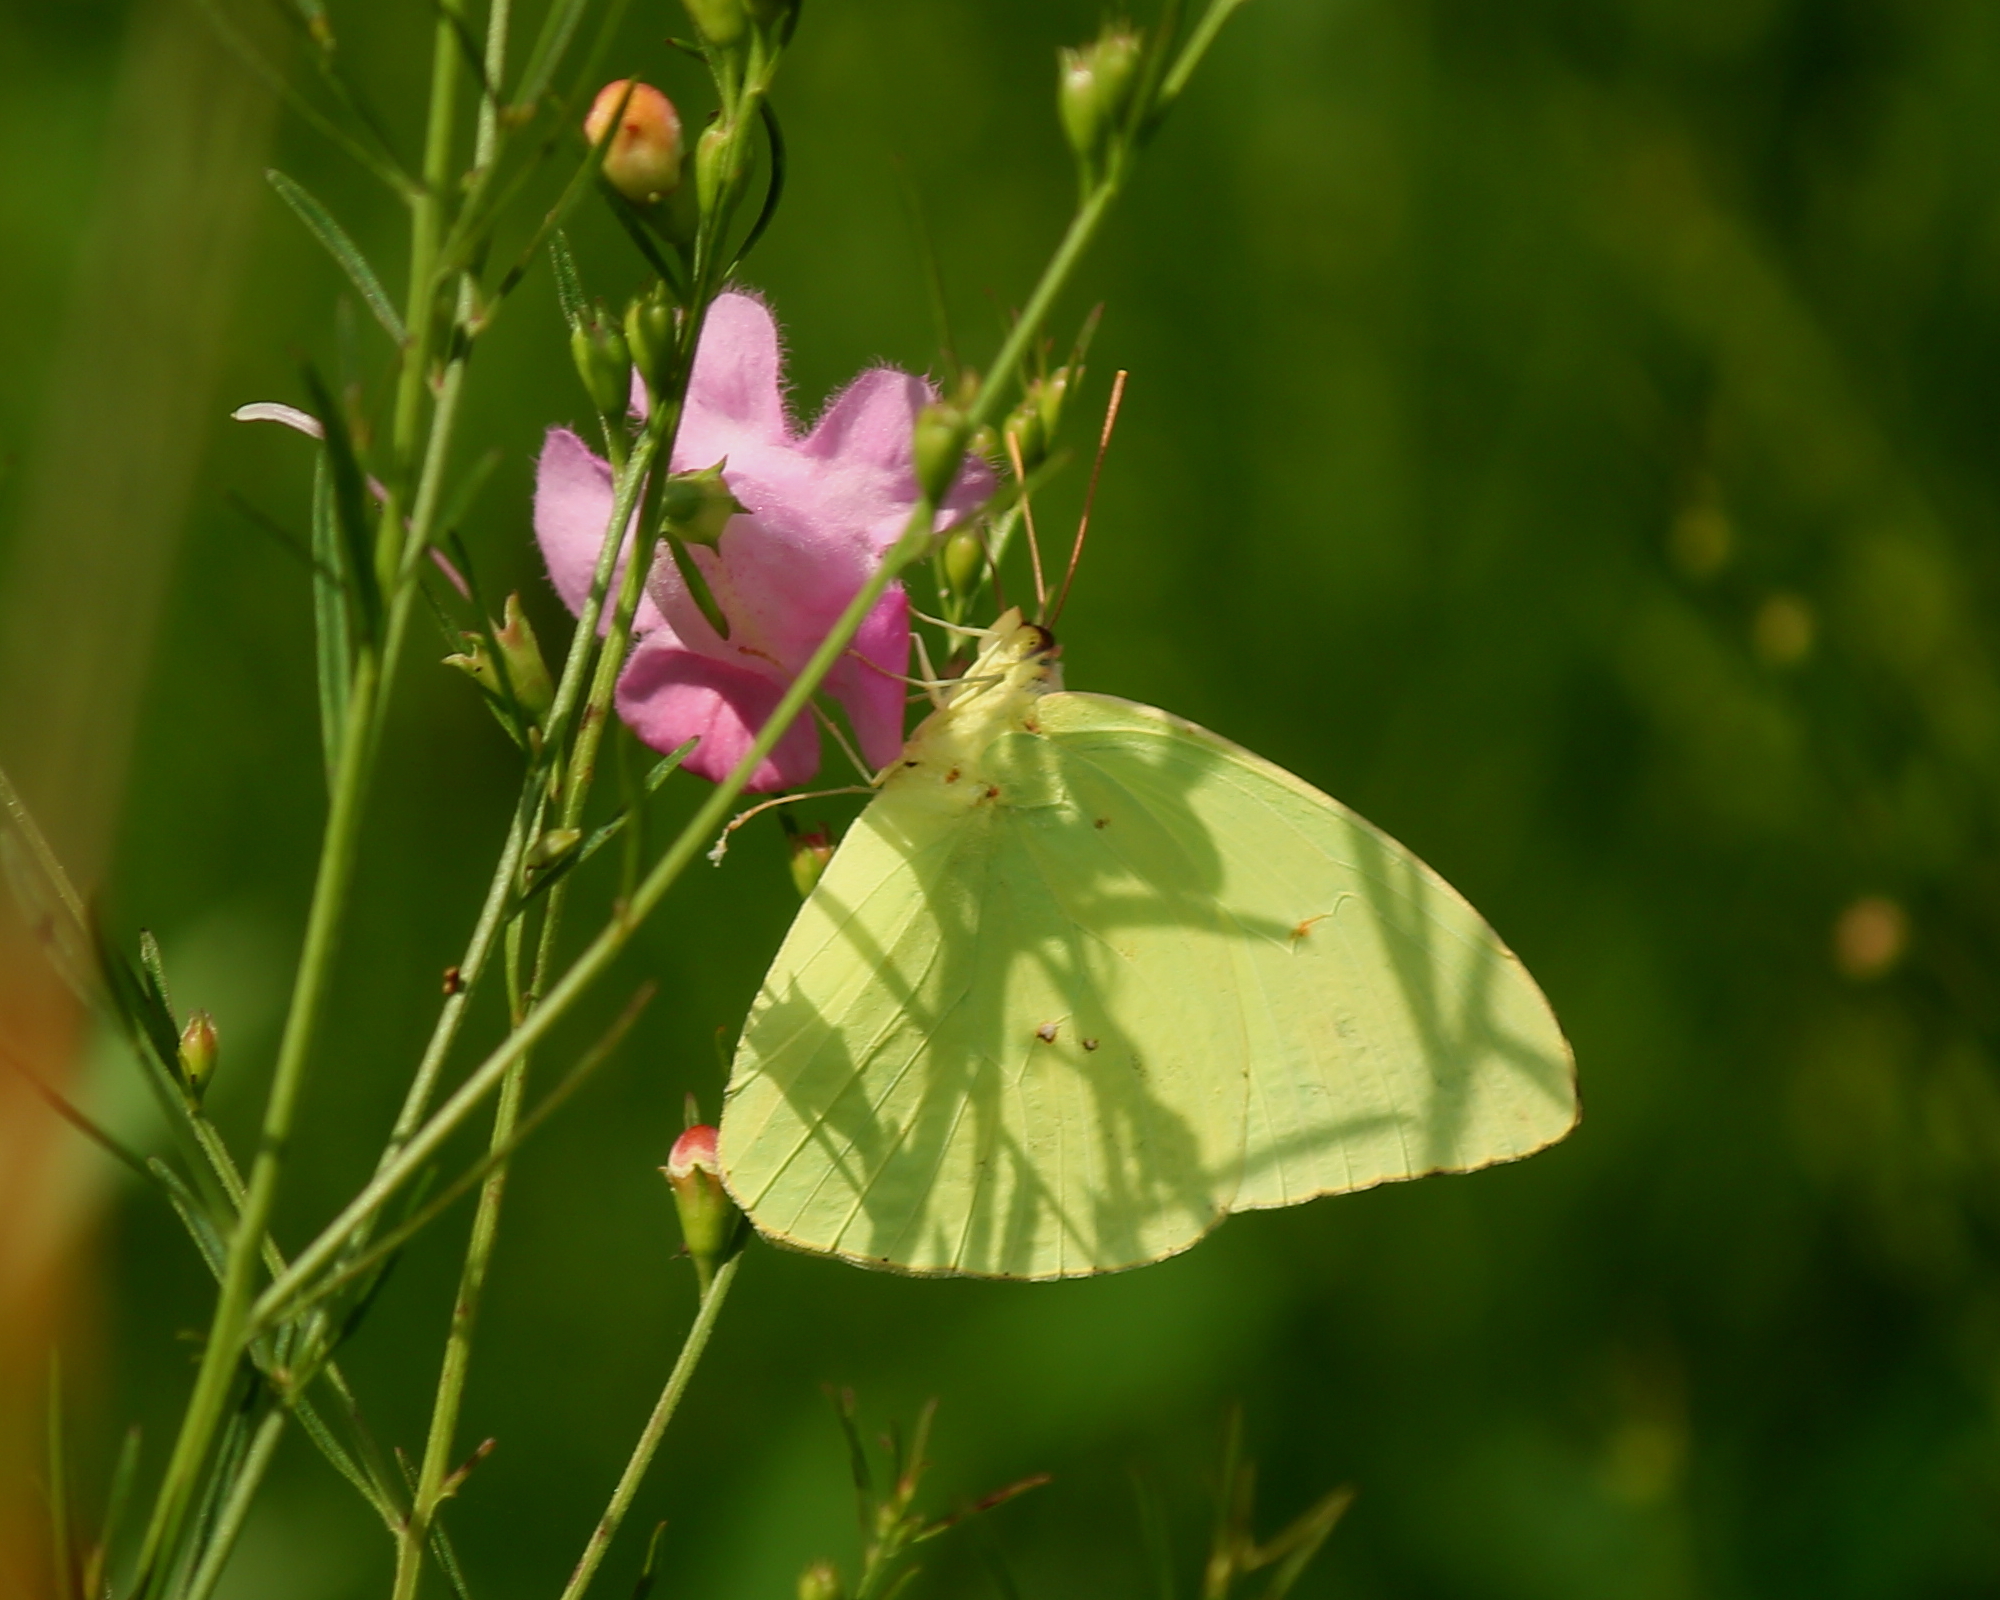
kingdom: Animalia
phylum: Arthropoda
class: Insecta
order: Lepidoptera
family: Pieridae
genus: Phoebis
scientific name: Phoebis sennae
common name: Cloudless sulphur
